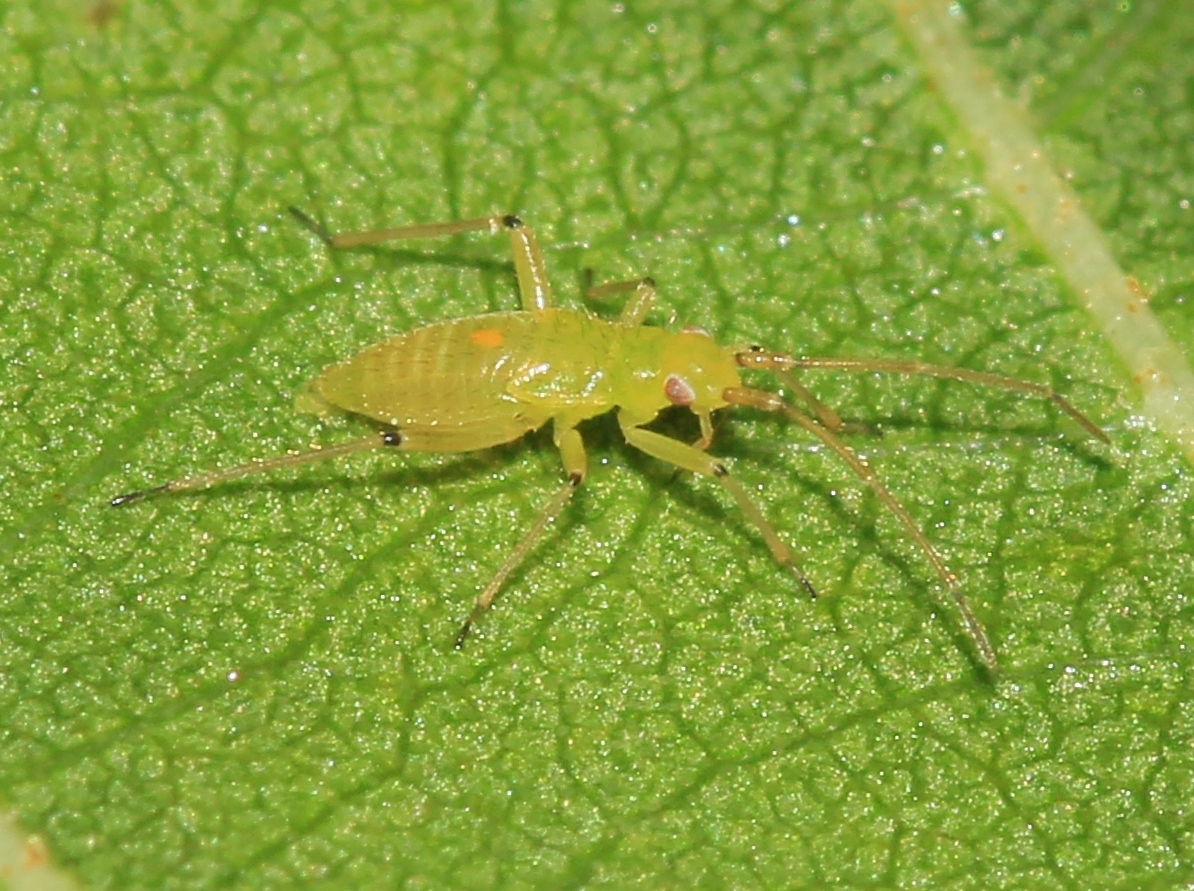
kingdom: Animalia
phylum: Arthropoda
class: Insecta
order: Hemiptera
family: Miridae
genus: Blepharidopterus
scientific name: Blepharidopterus angulatus
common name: Plant bug
